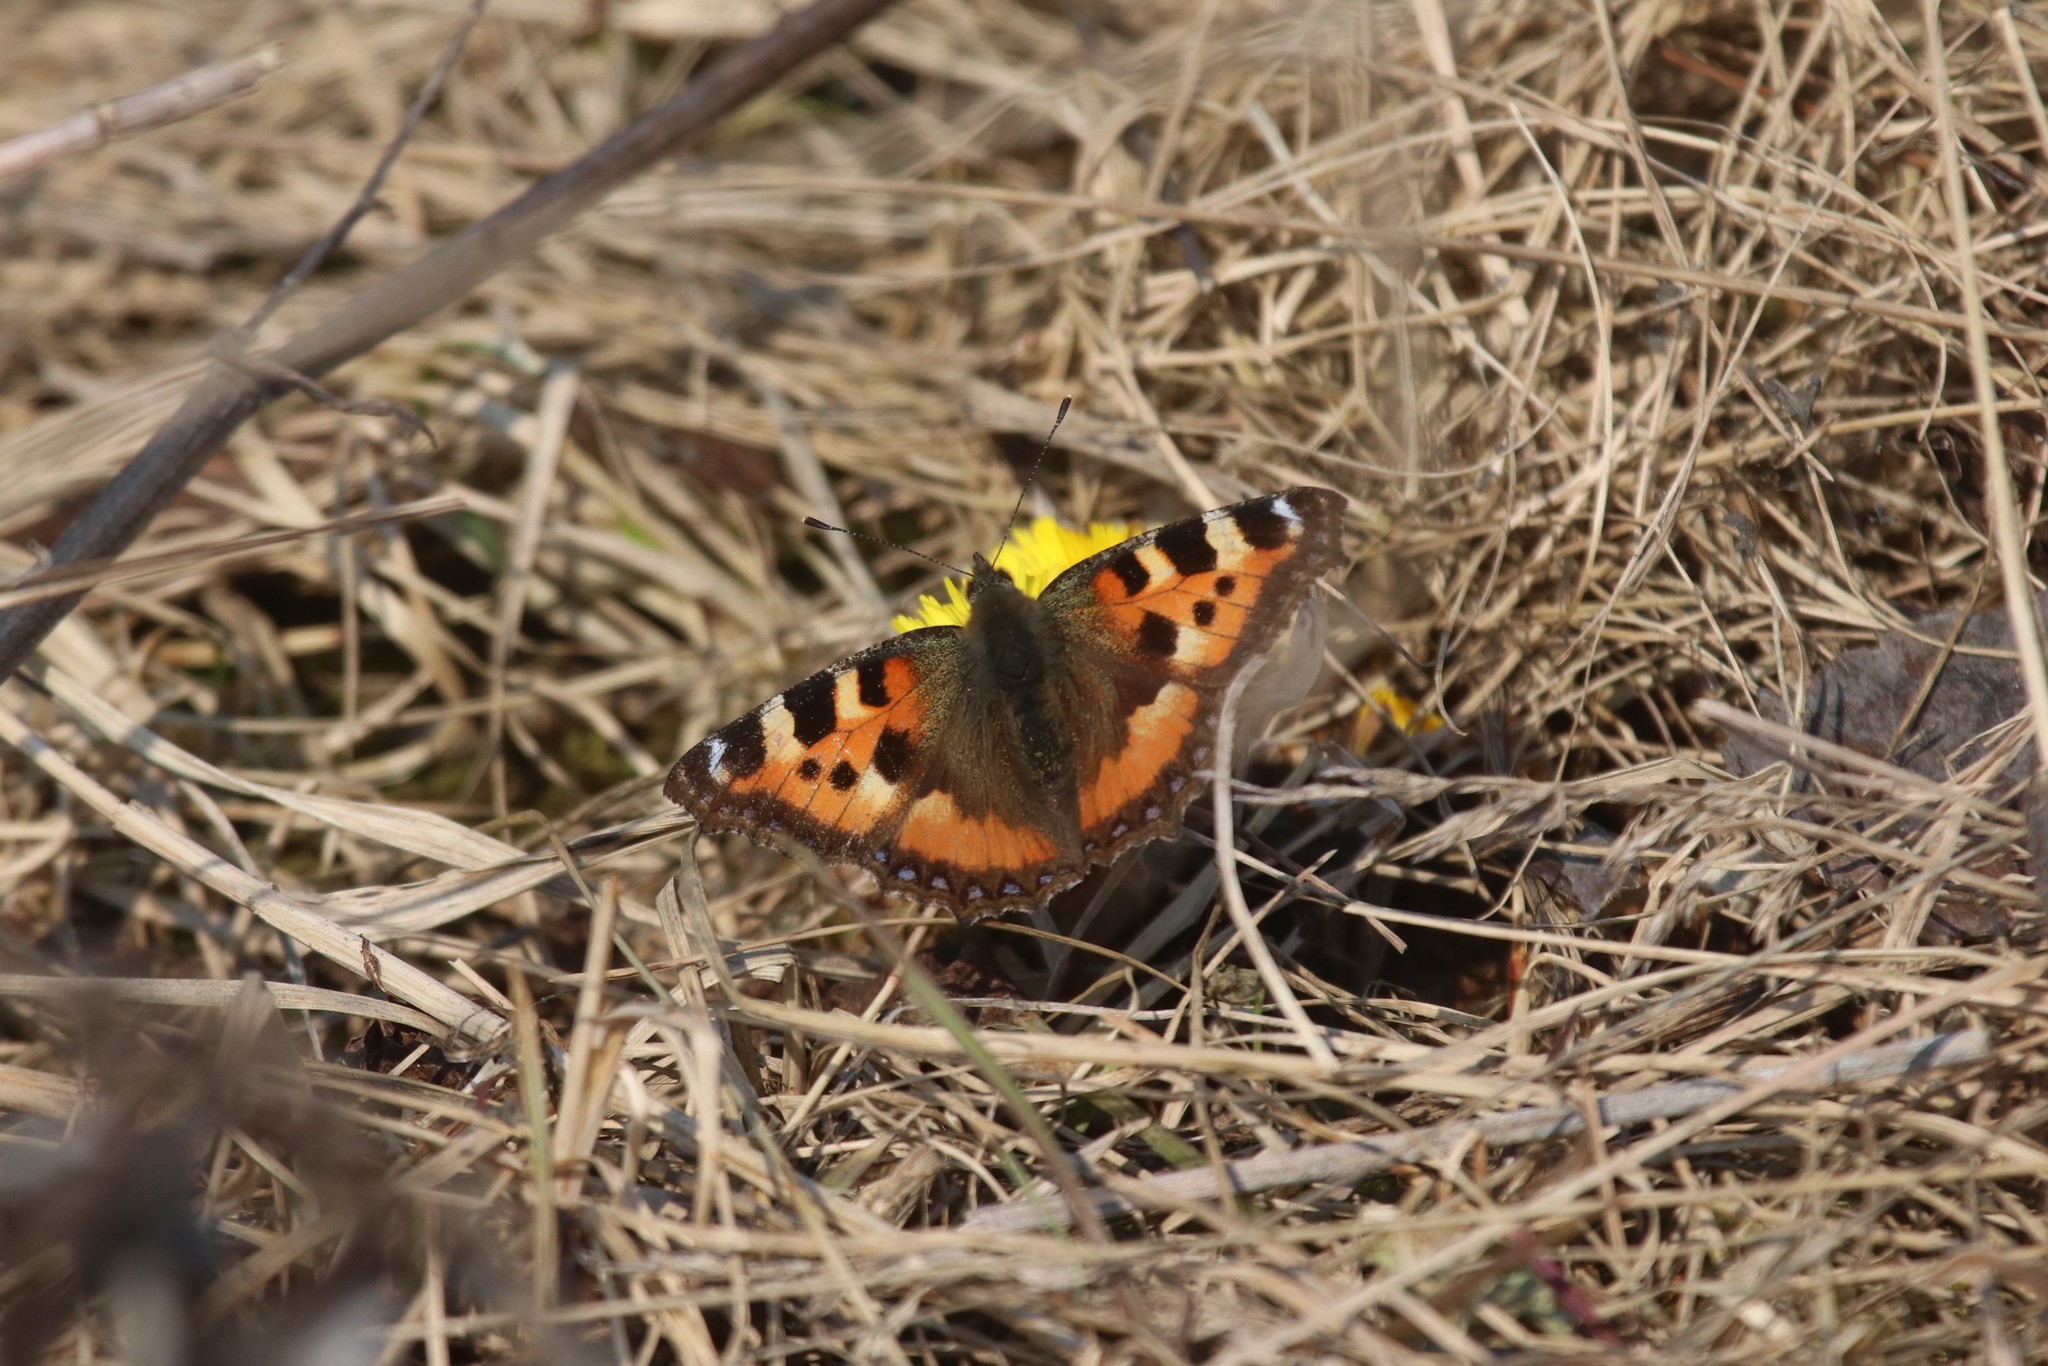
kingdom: Animalia
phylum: Arthropoda
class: Insecta
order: Lepidoptera
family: Nymphalidae
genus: Aglais
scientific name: Aglais urticae
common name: Small tortoiseshell
